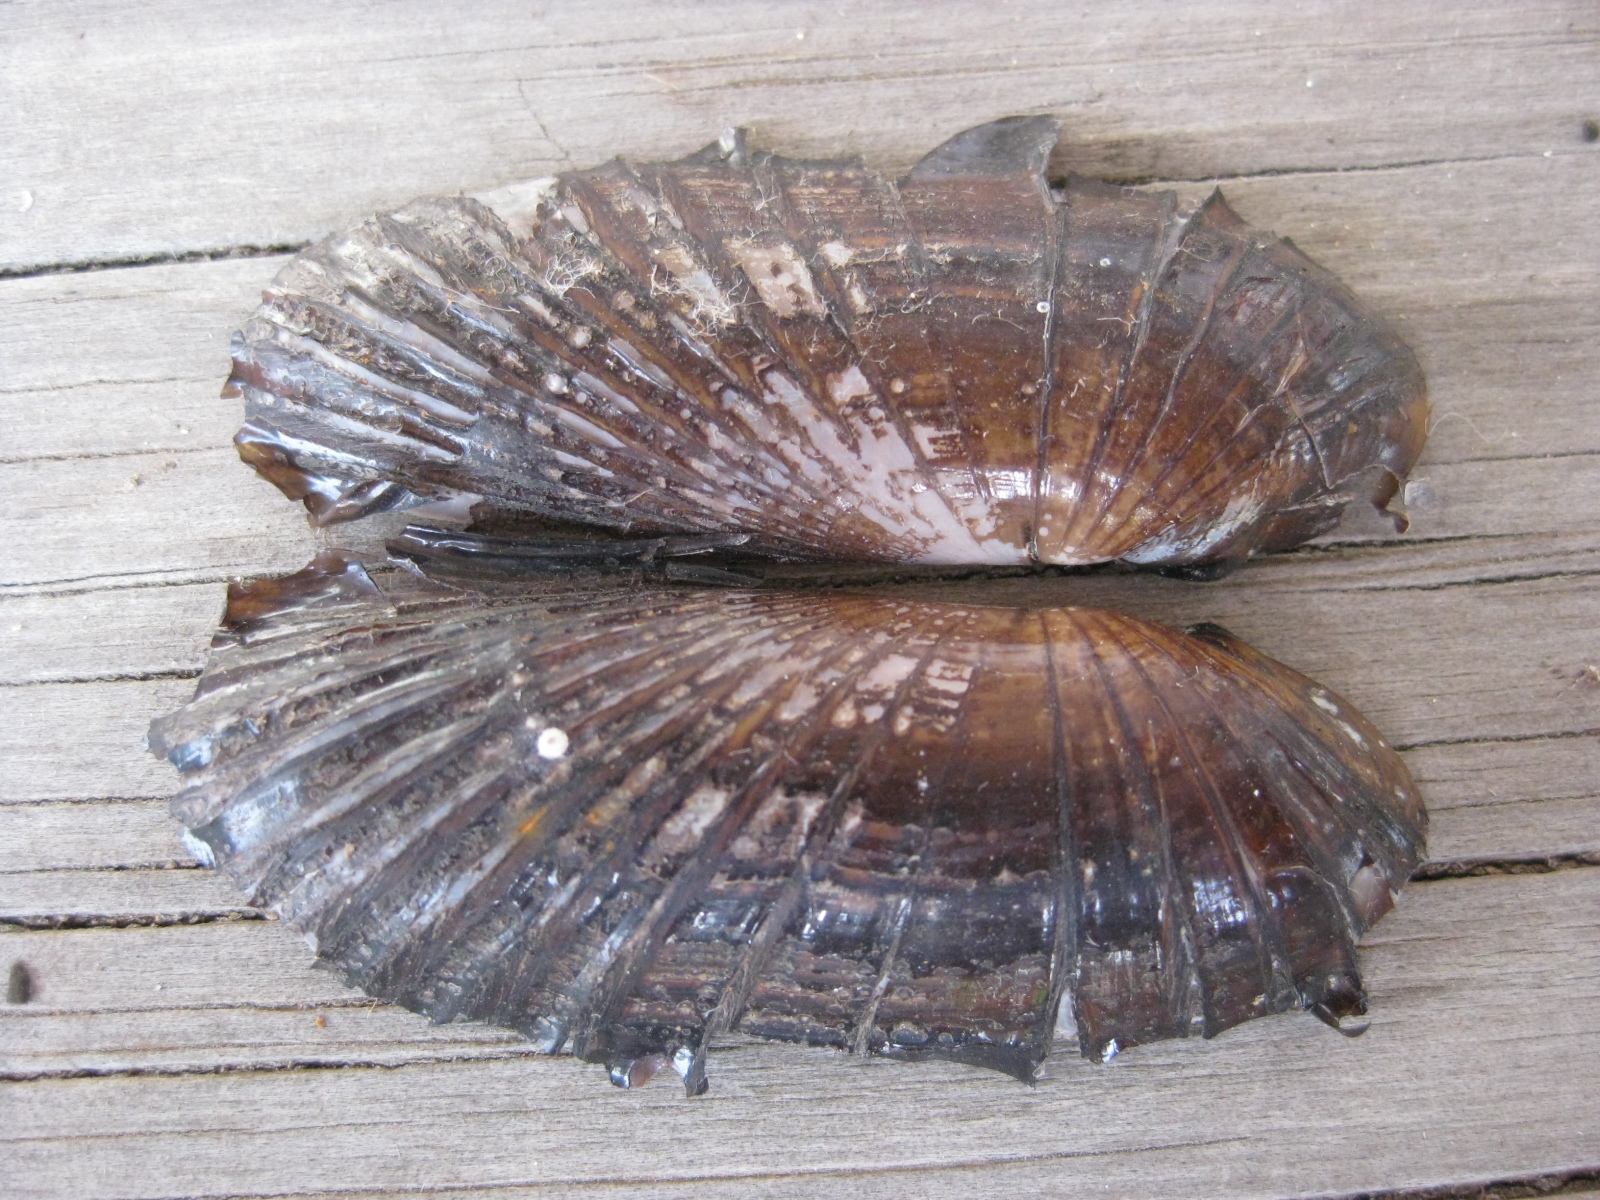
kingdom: Animalia
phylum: Mollusca
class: Bivalvia
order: Solemyida
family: Solemyidae
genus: Solemya
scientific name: Solemya parkinsonii
